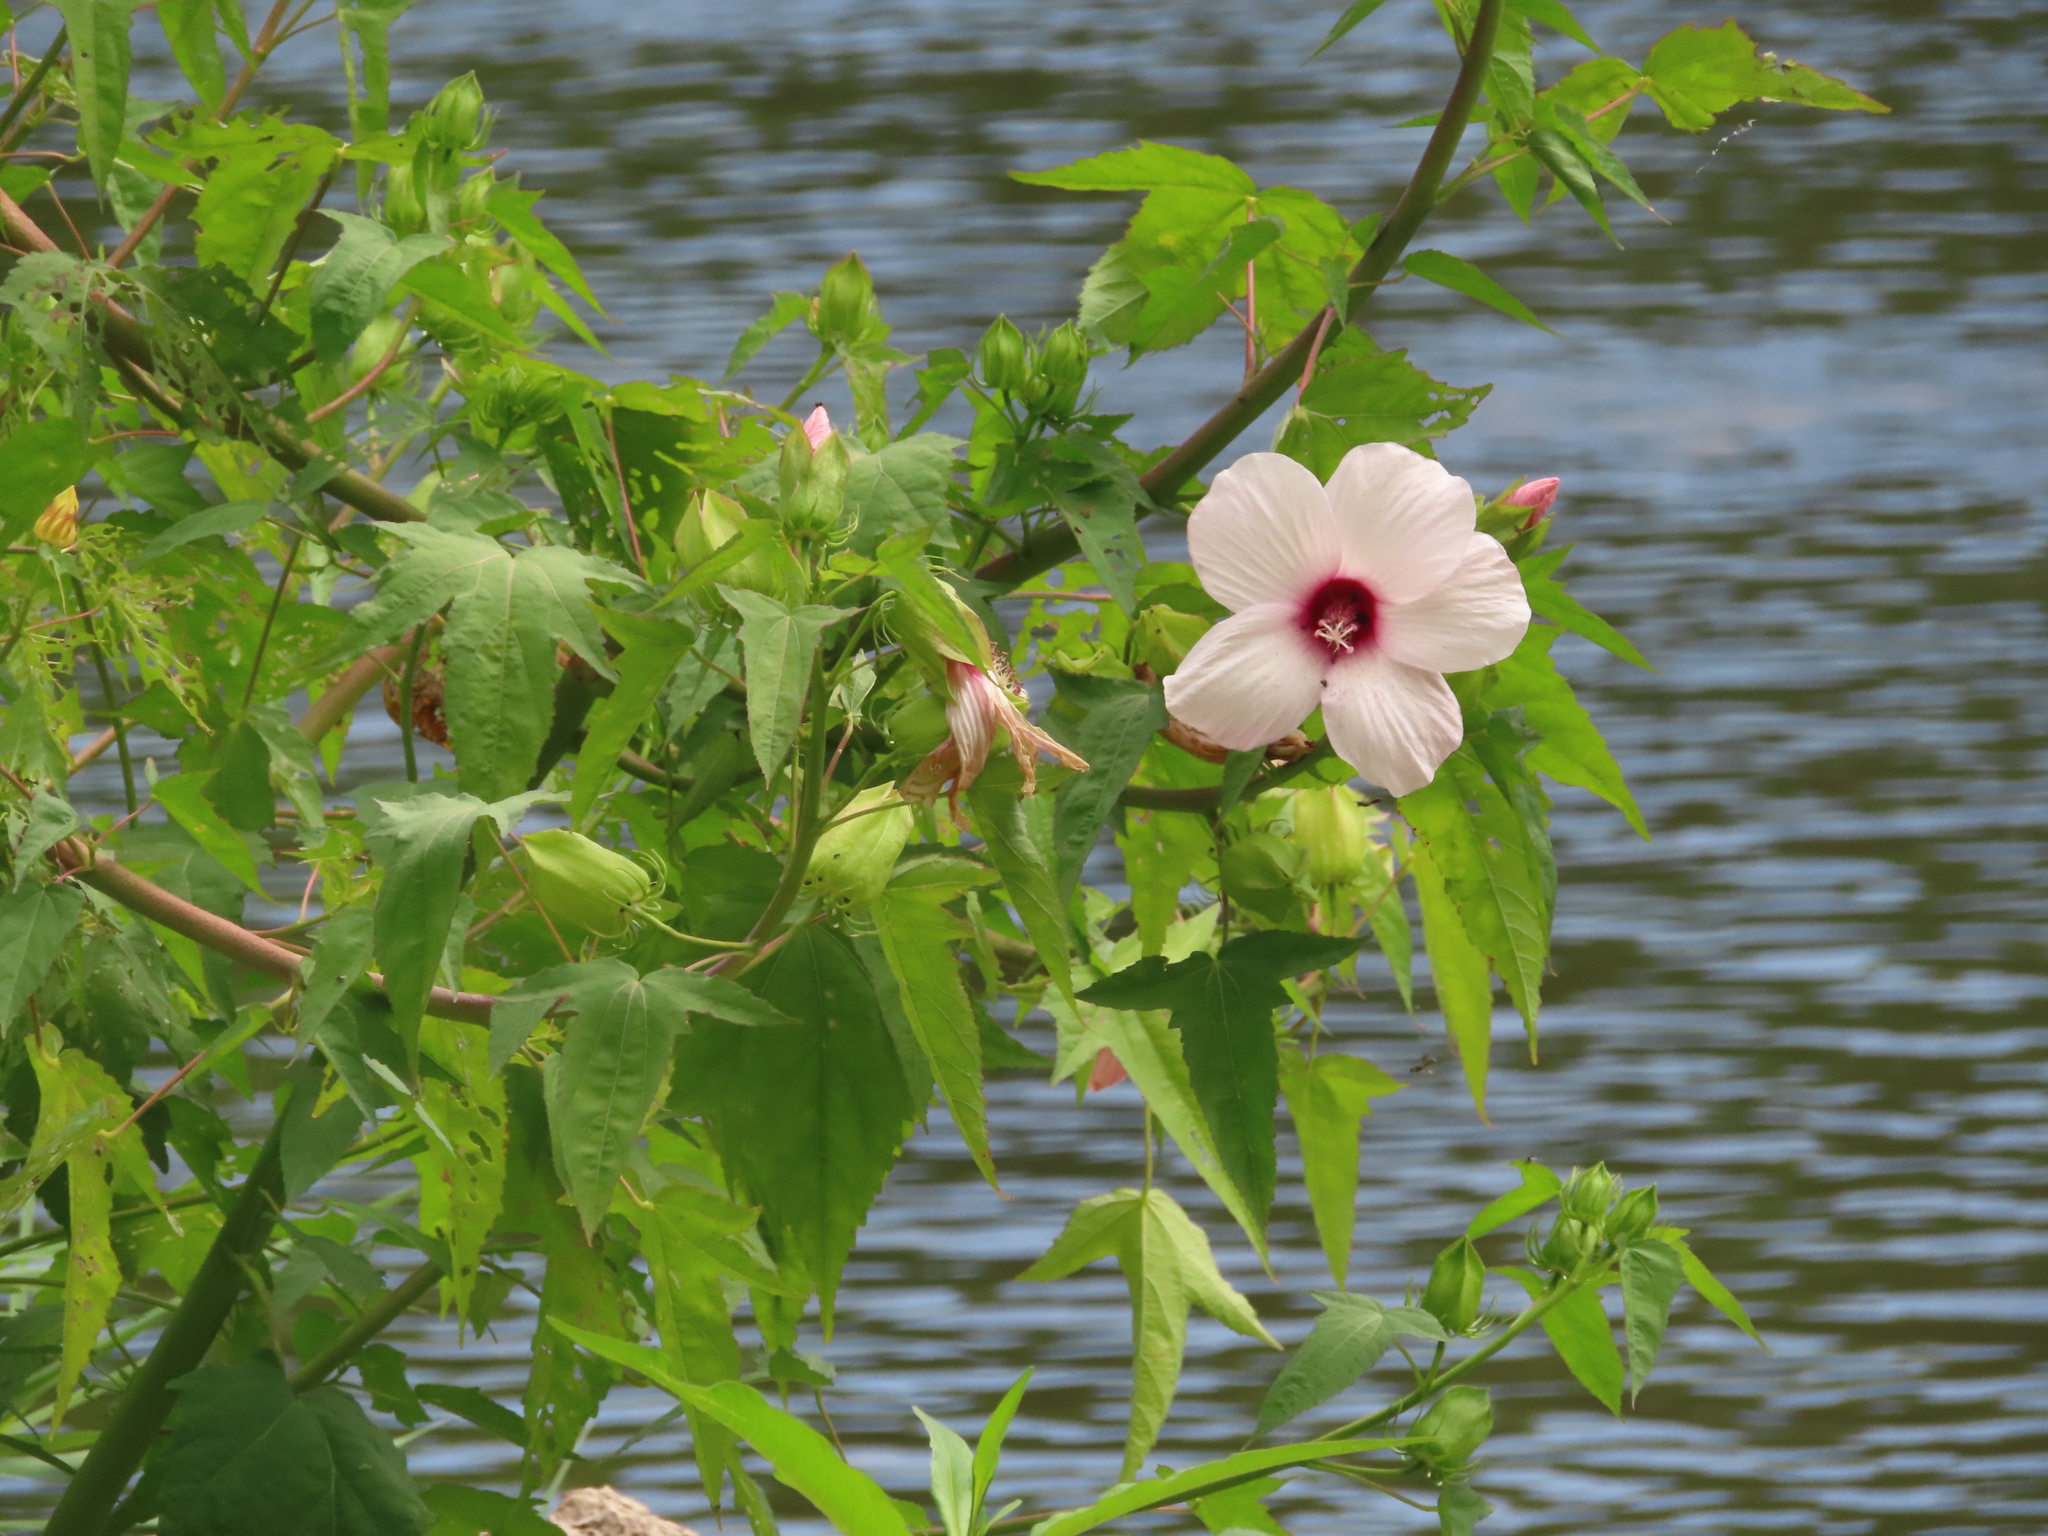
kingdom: Plantae
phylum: Tracheophyta
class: Magnoliopsida
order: Malvales
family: Malvaceae
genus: Hibiscus
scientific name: Hibiscus laevis
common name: Scarlet rose-mallow
